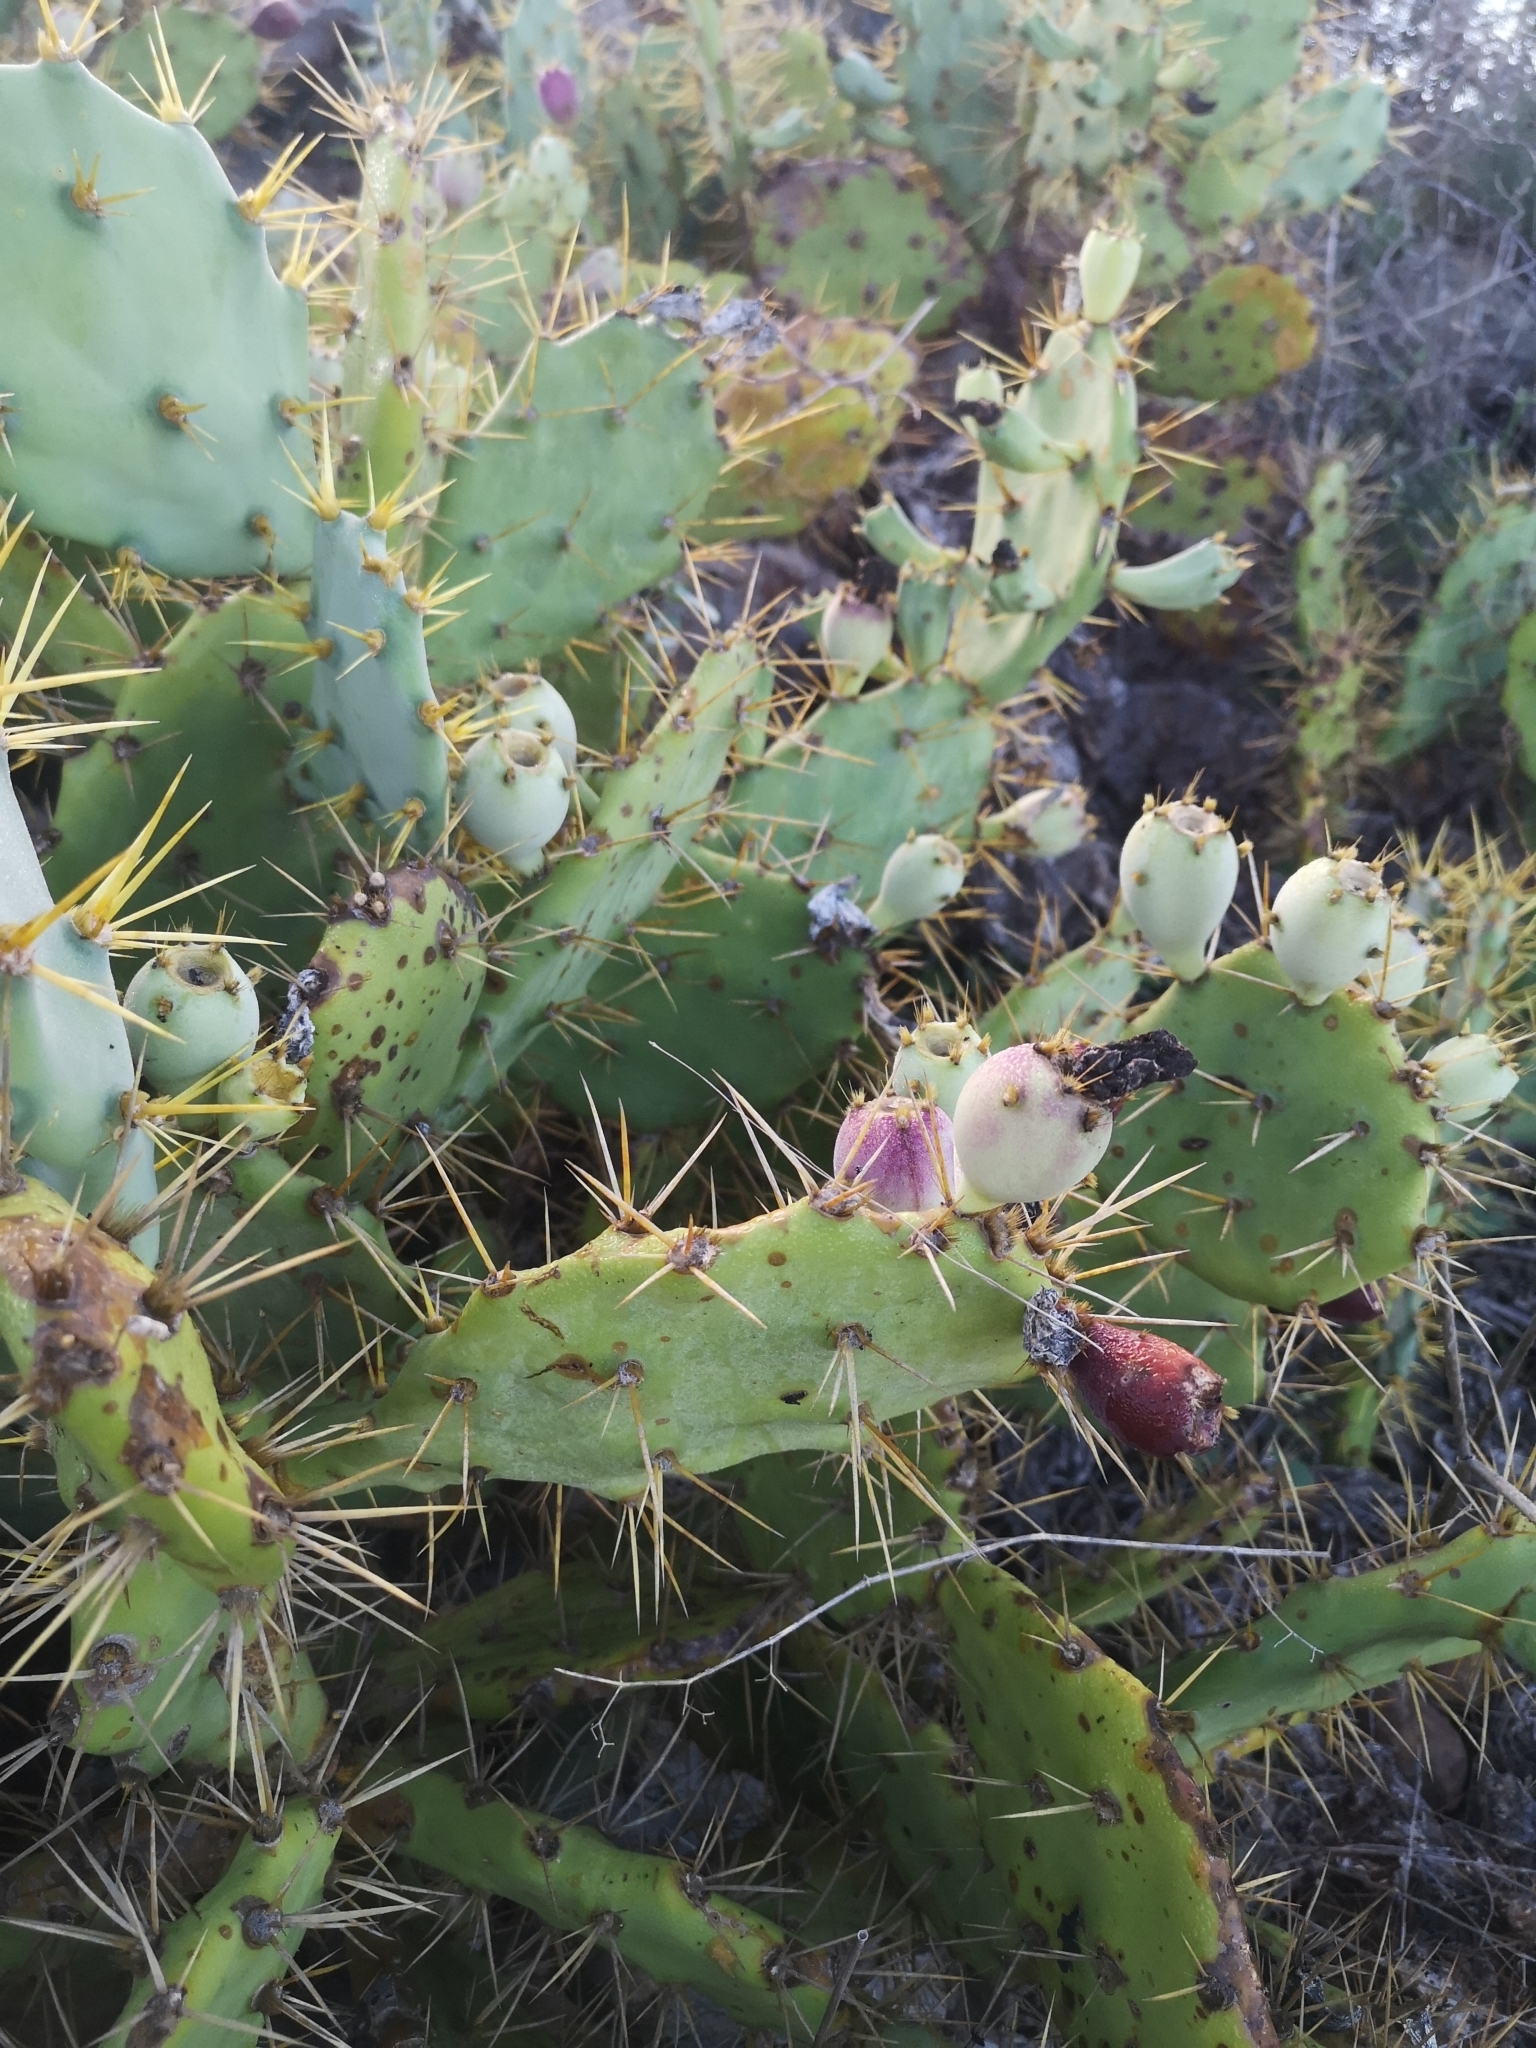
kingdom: Plantae
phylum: Tracheophyta
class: Magnoliopsida
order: Caryophyllales
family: Cactaceae
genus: Opuntia
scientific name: Opuntia stricta
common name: Erect pricklypear
